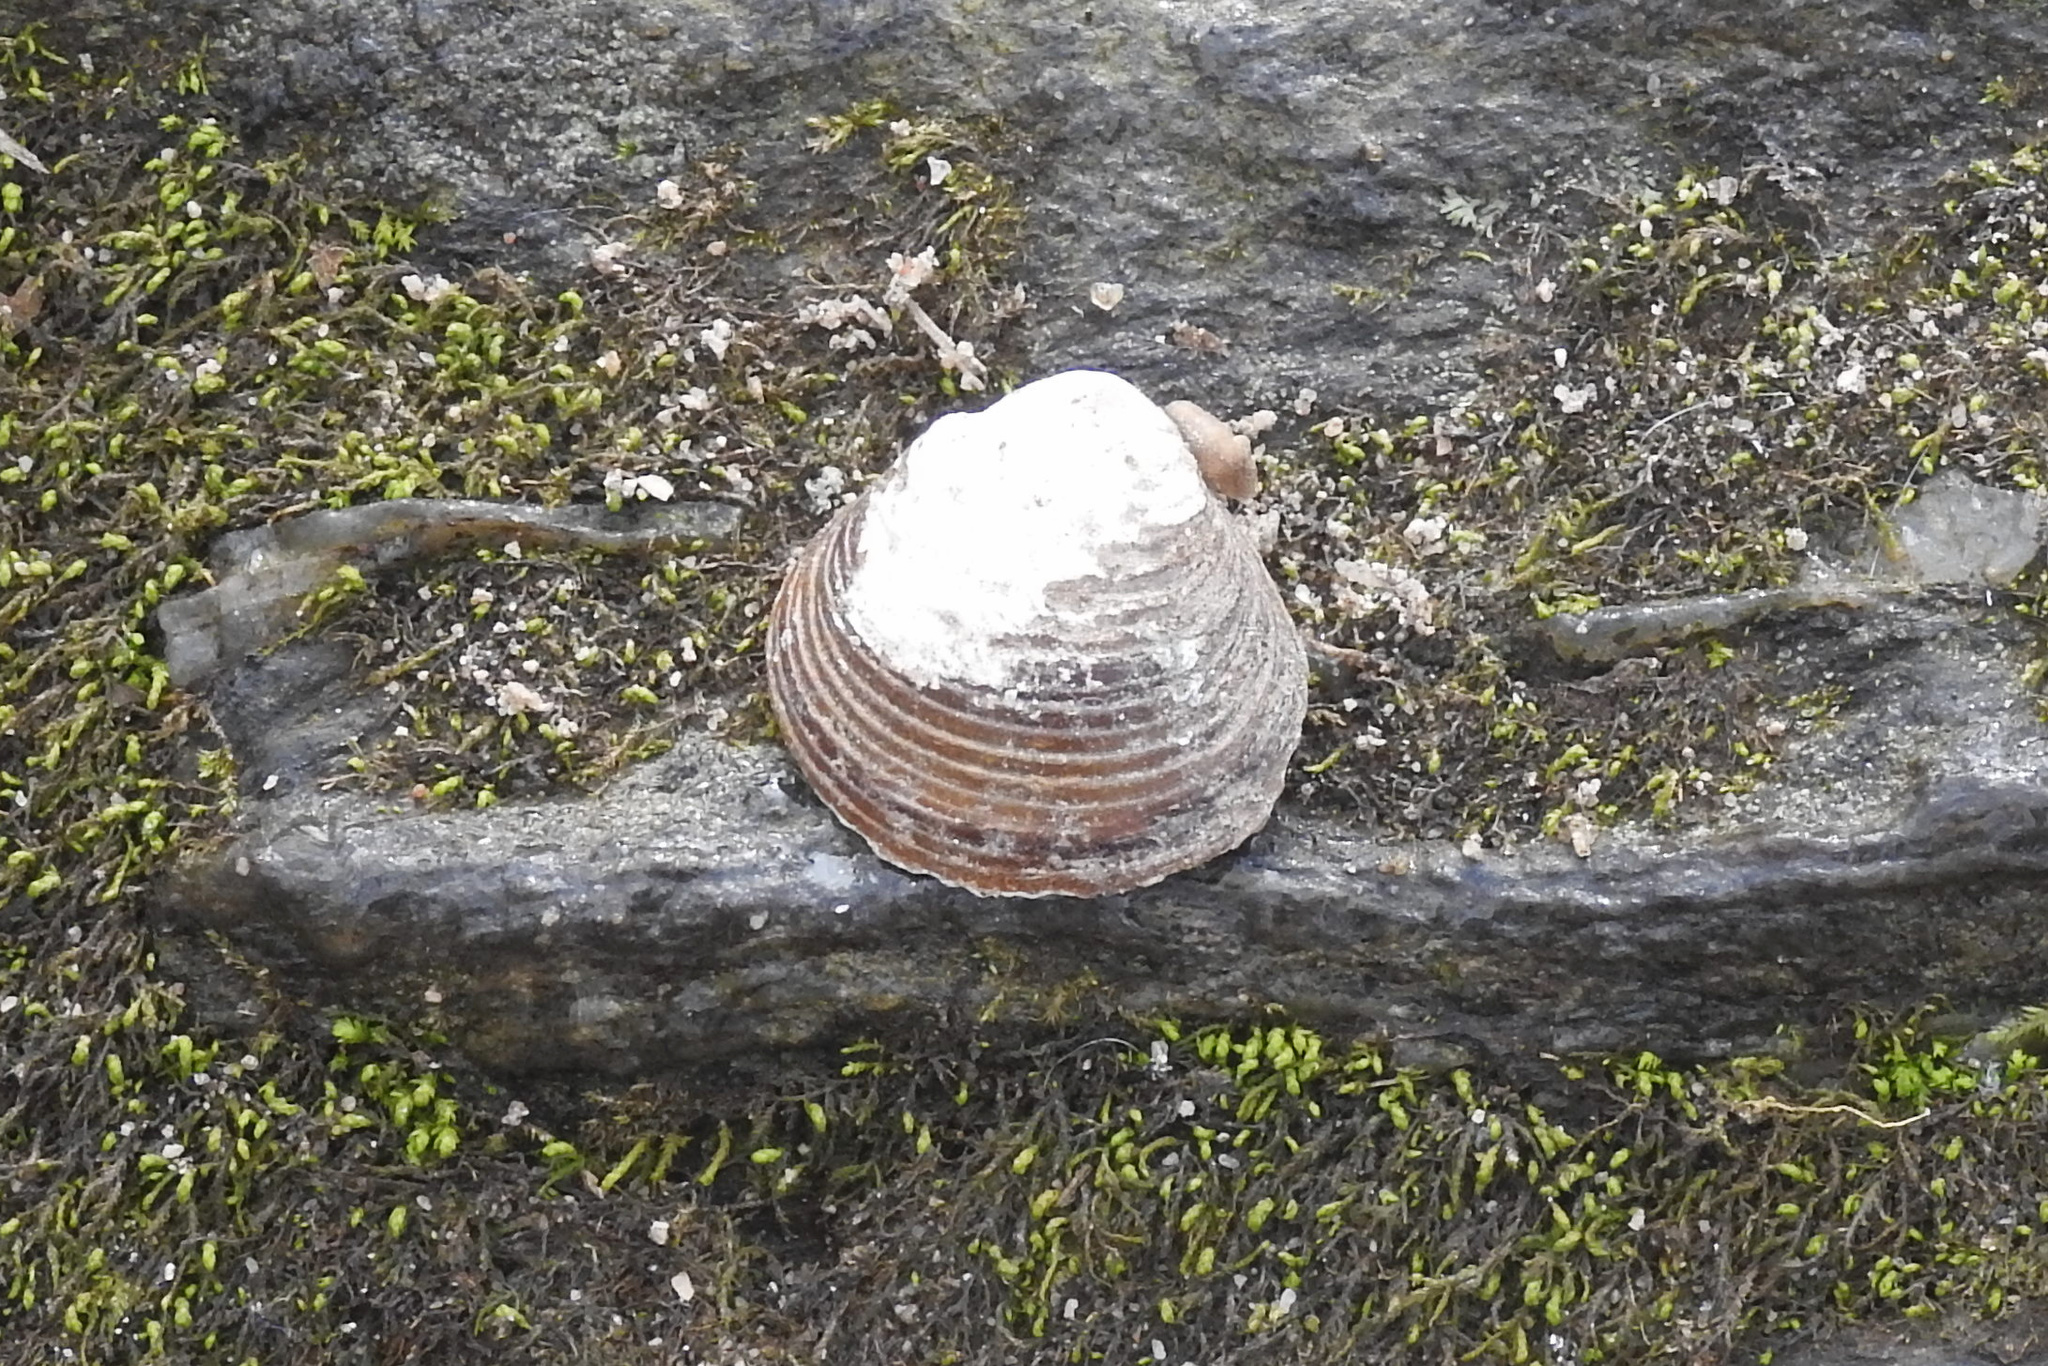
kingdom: Animalia
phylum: Mollusca
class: Bivalvia
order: Venerida
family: Cyrenidae
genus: Corbicula
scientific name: Corbicula fluminea
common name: Asian clam
